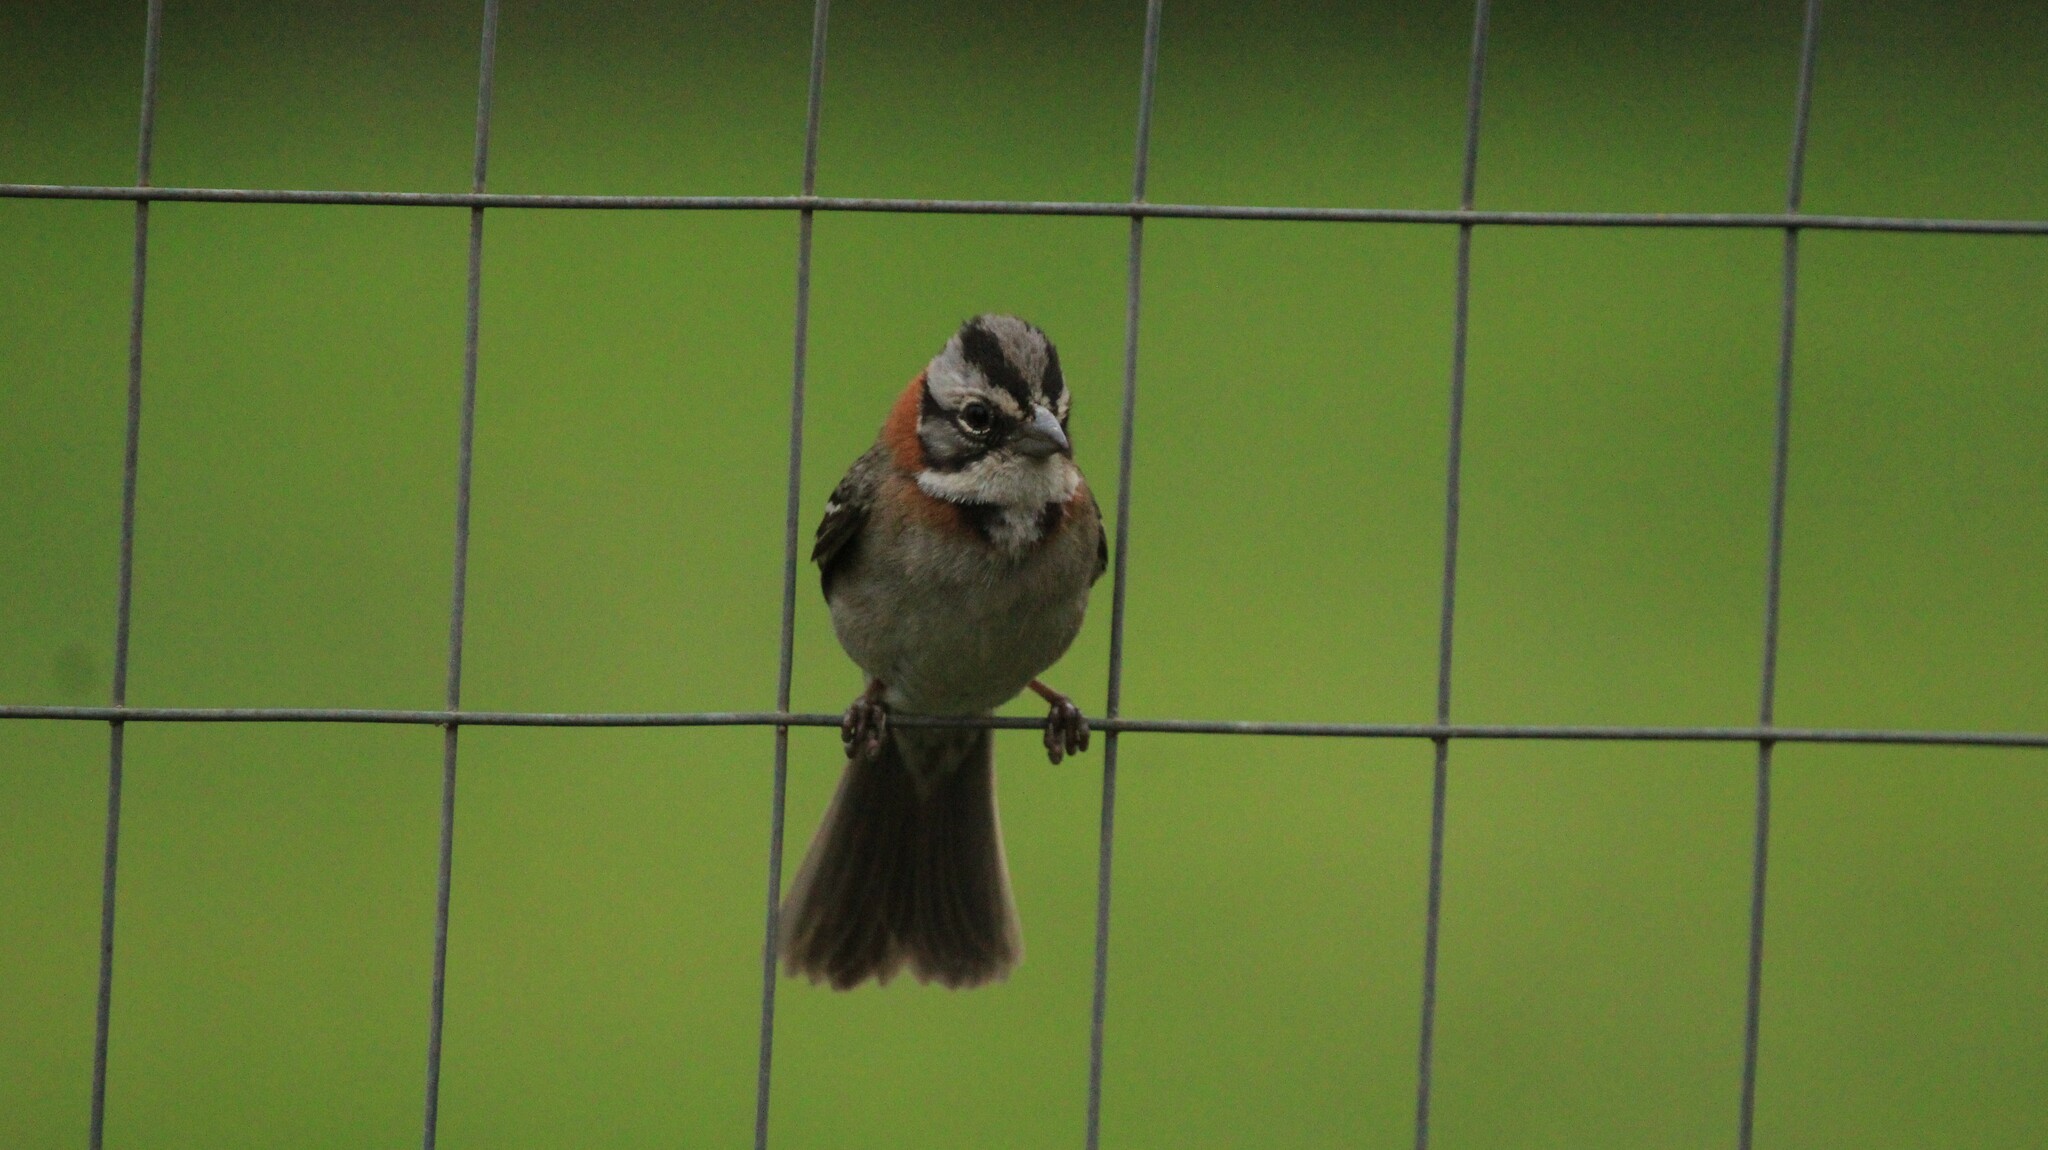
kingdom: Animalia
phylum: Chordata
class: Aves
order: Passeriformes
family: Passerellidae
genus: Zonotrichia
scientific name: Zonotrichia capensis
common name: Rufous-collared sparrow
